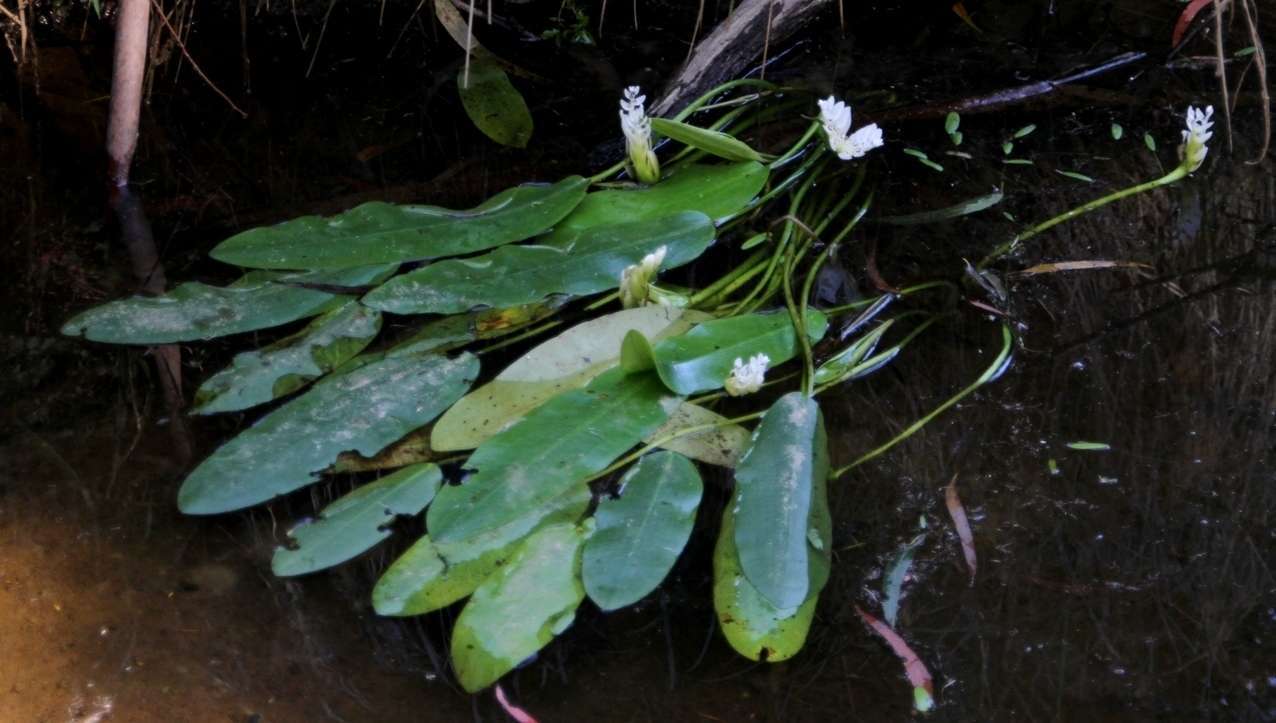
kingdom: Plantae
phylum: Tracheophyta
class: Liliopsida
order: Alismatales
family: Aponogetonaceae
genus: Aponogeton
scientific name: Aponogeton distachyos
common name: Cape-pondweed
